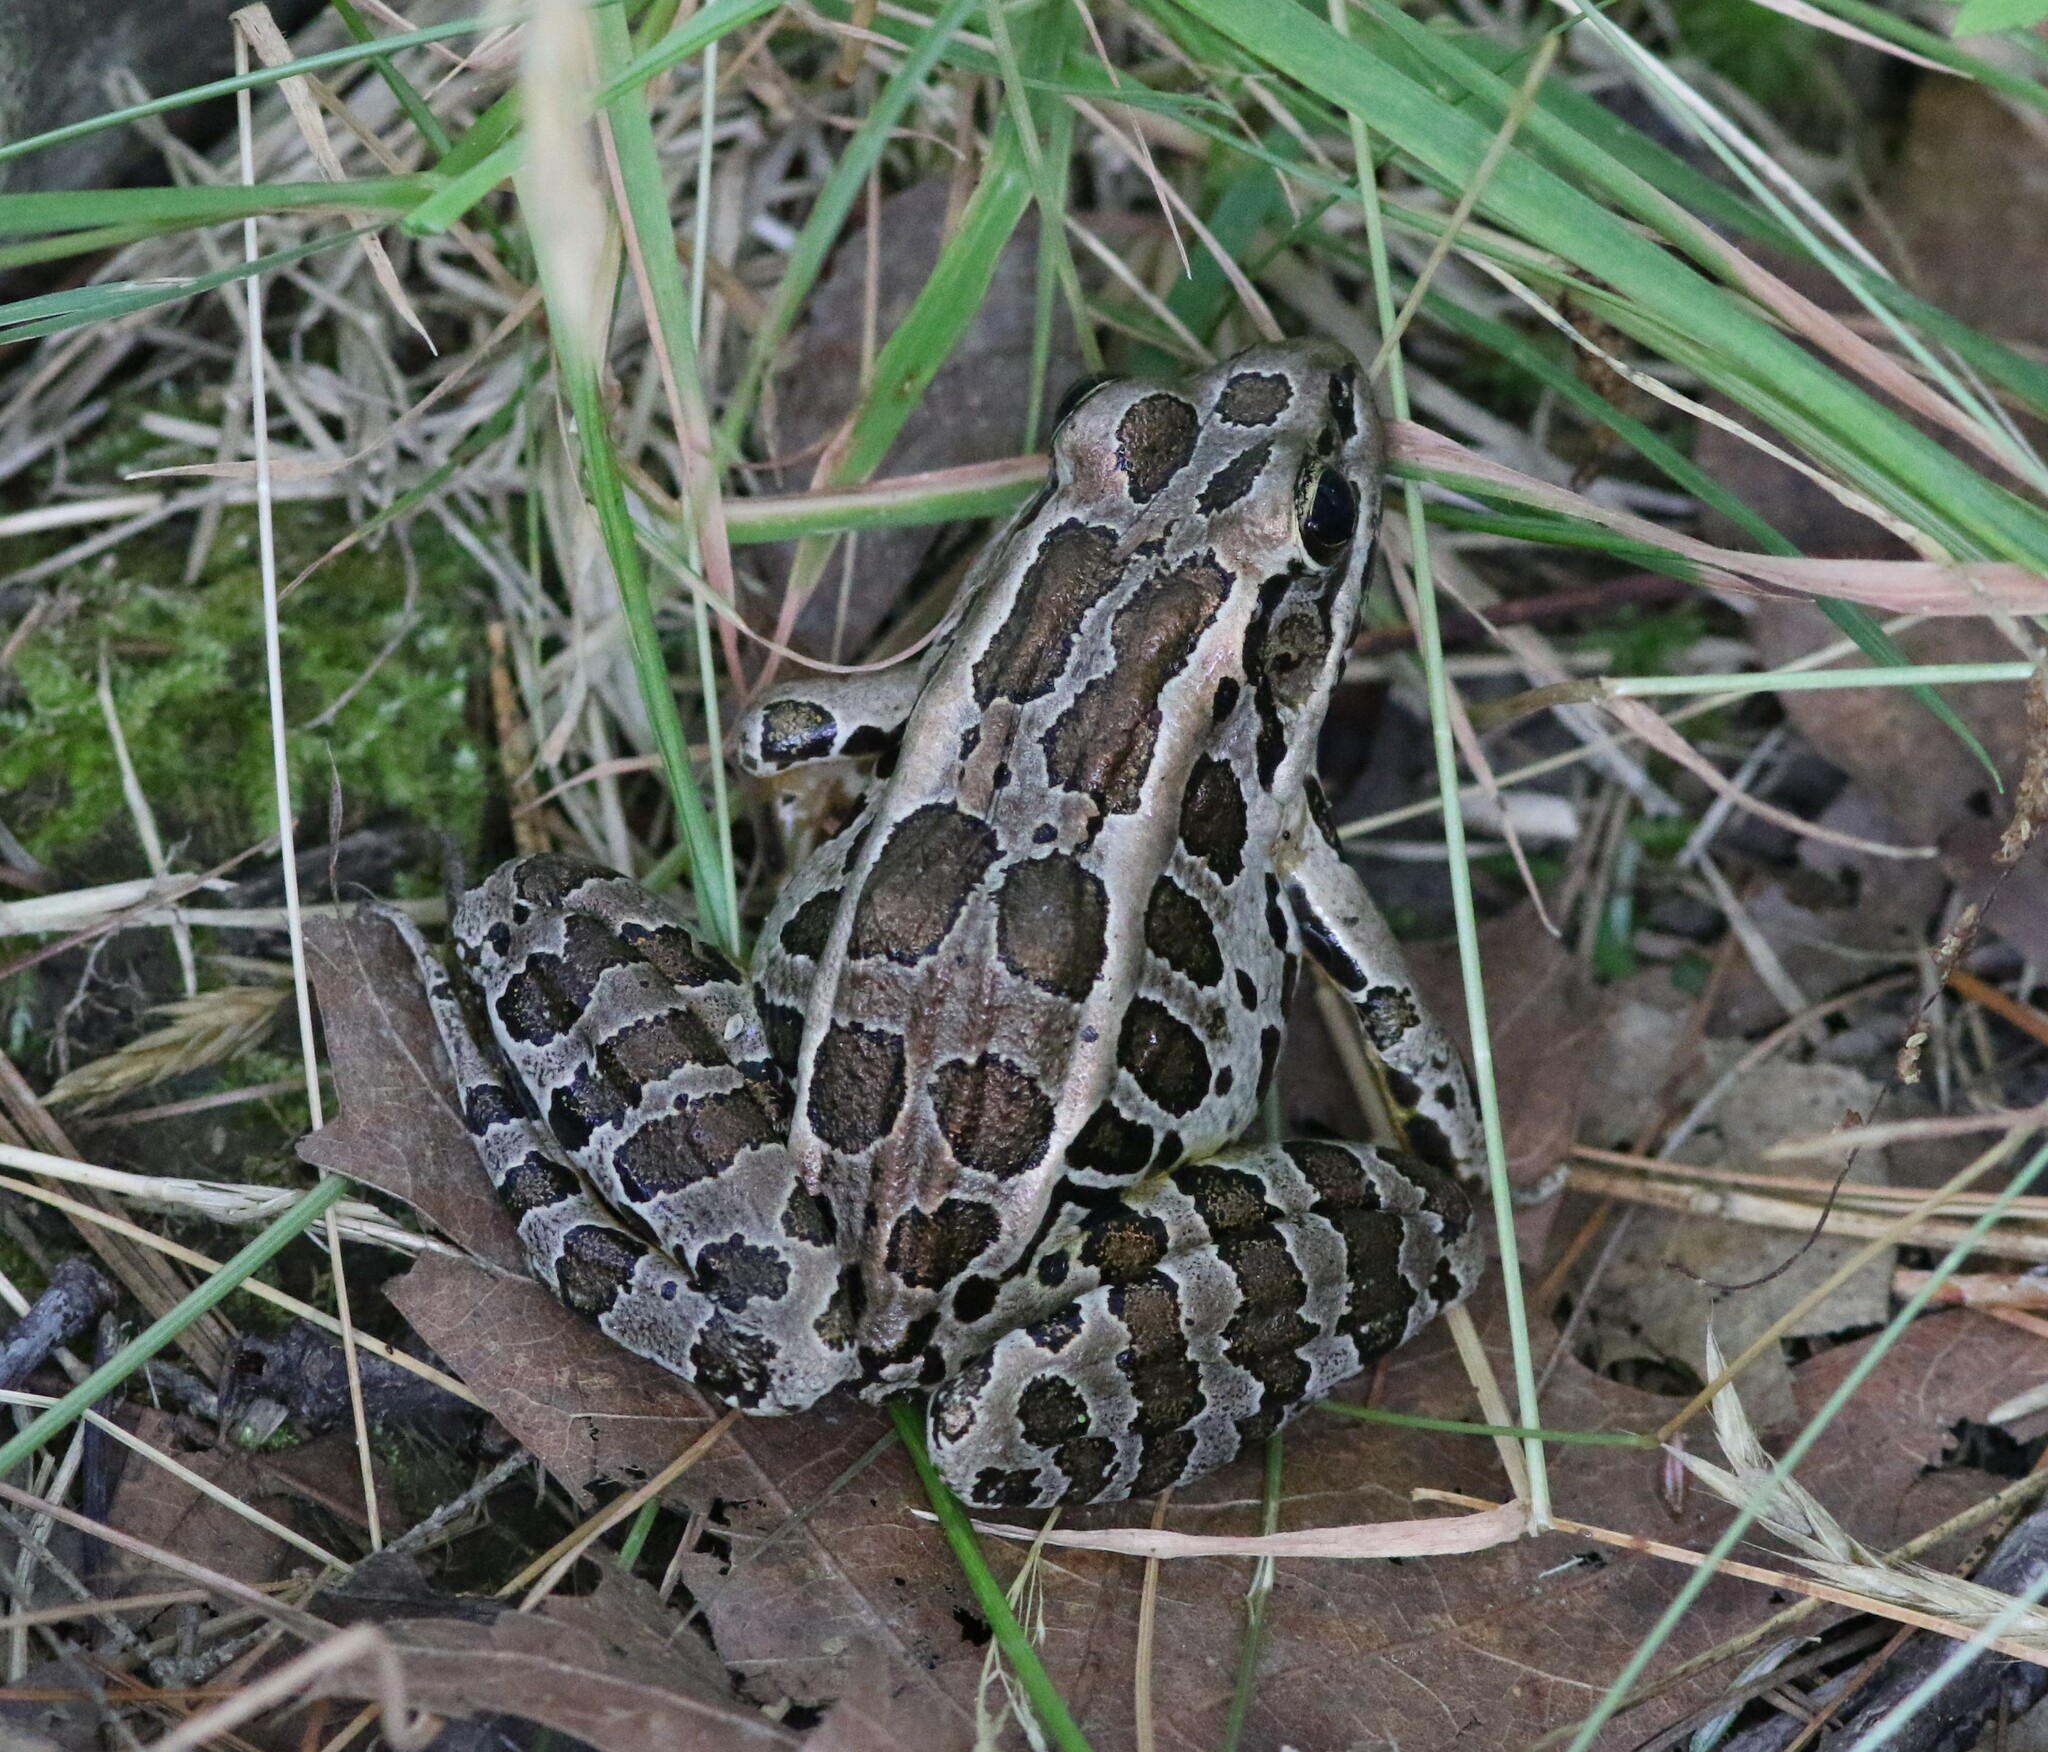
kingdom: Animalia
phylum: Chordata
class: Amphibia
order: Anura
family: Ranidae
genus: Lithobates
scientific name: Lithobates palustris
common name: Pickerel frog
